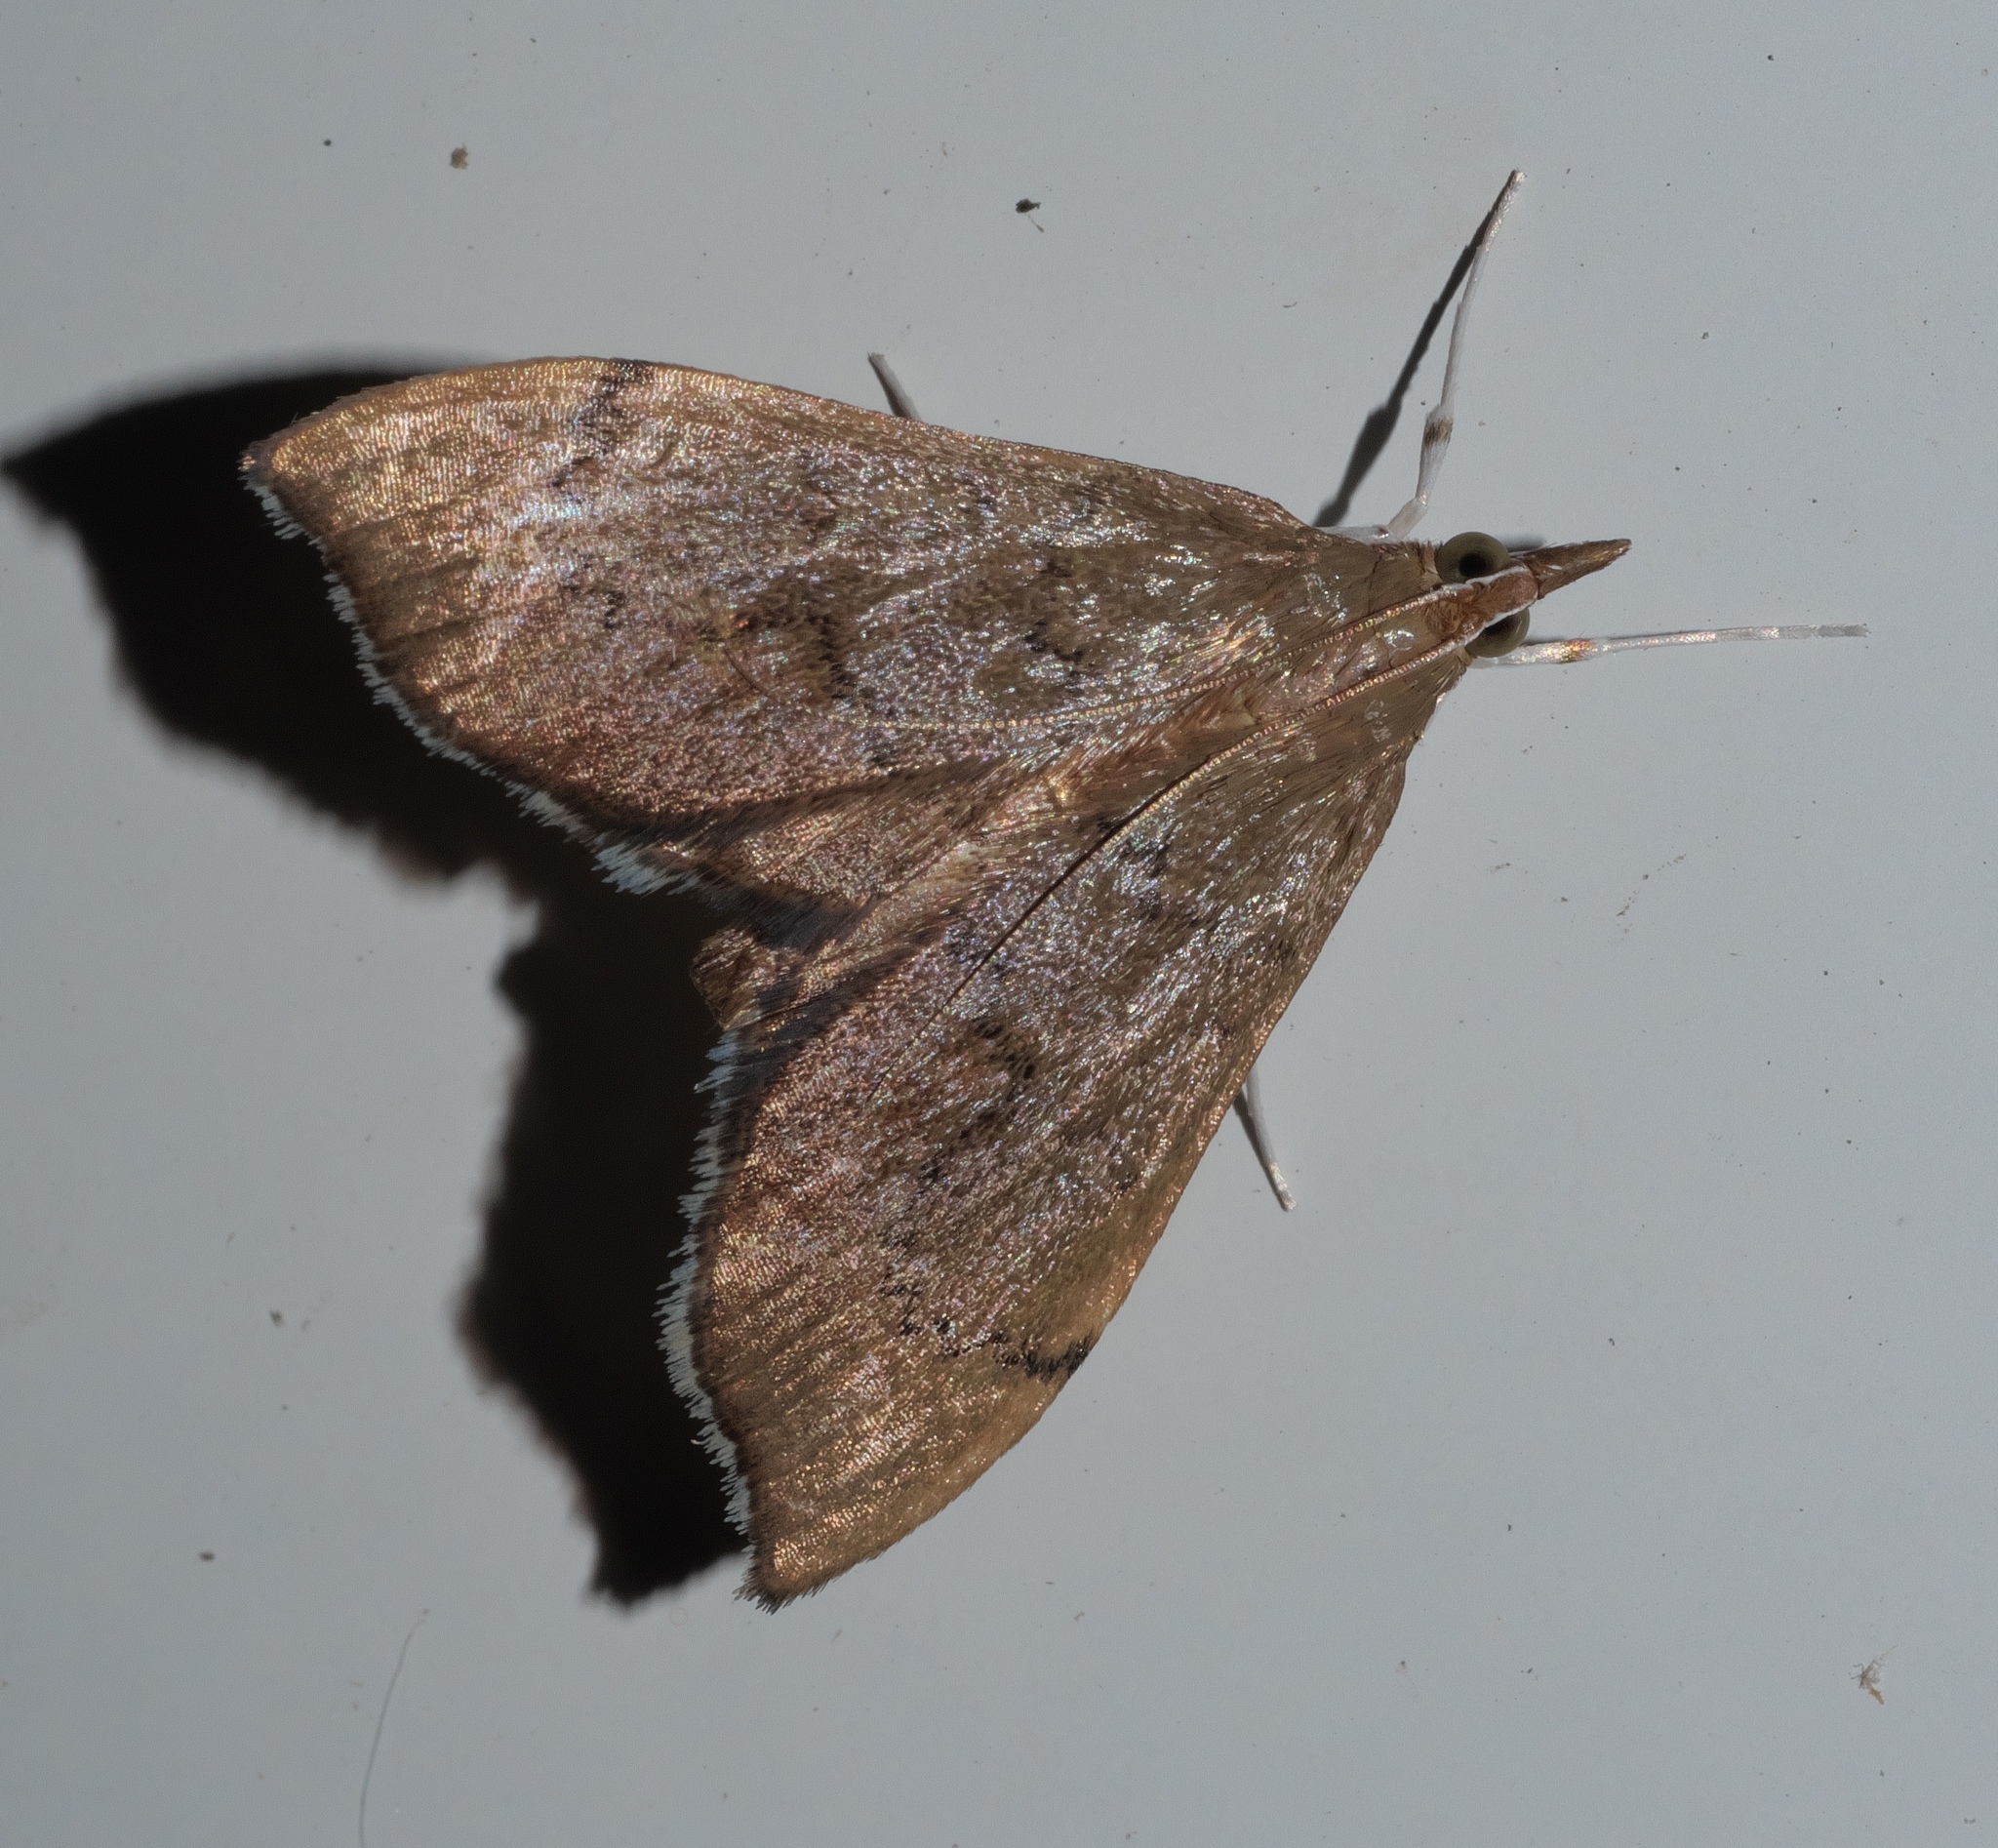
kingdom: Animalia
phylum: Arthropoda
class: Insecta
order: Lepidoptera
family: Crambidae
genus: Sericoplaga
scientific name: Sericoplaga externalis
